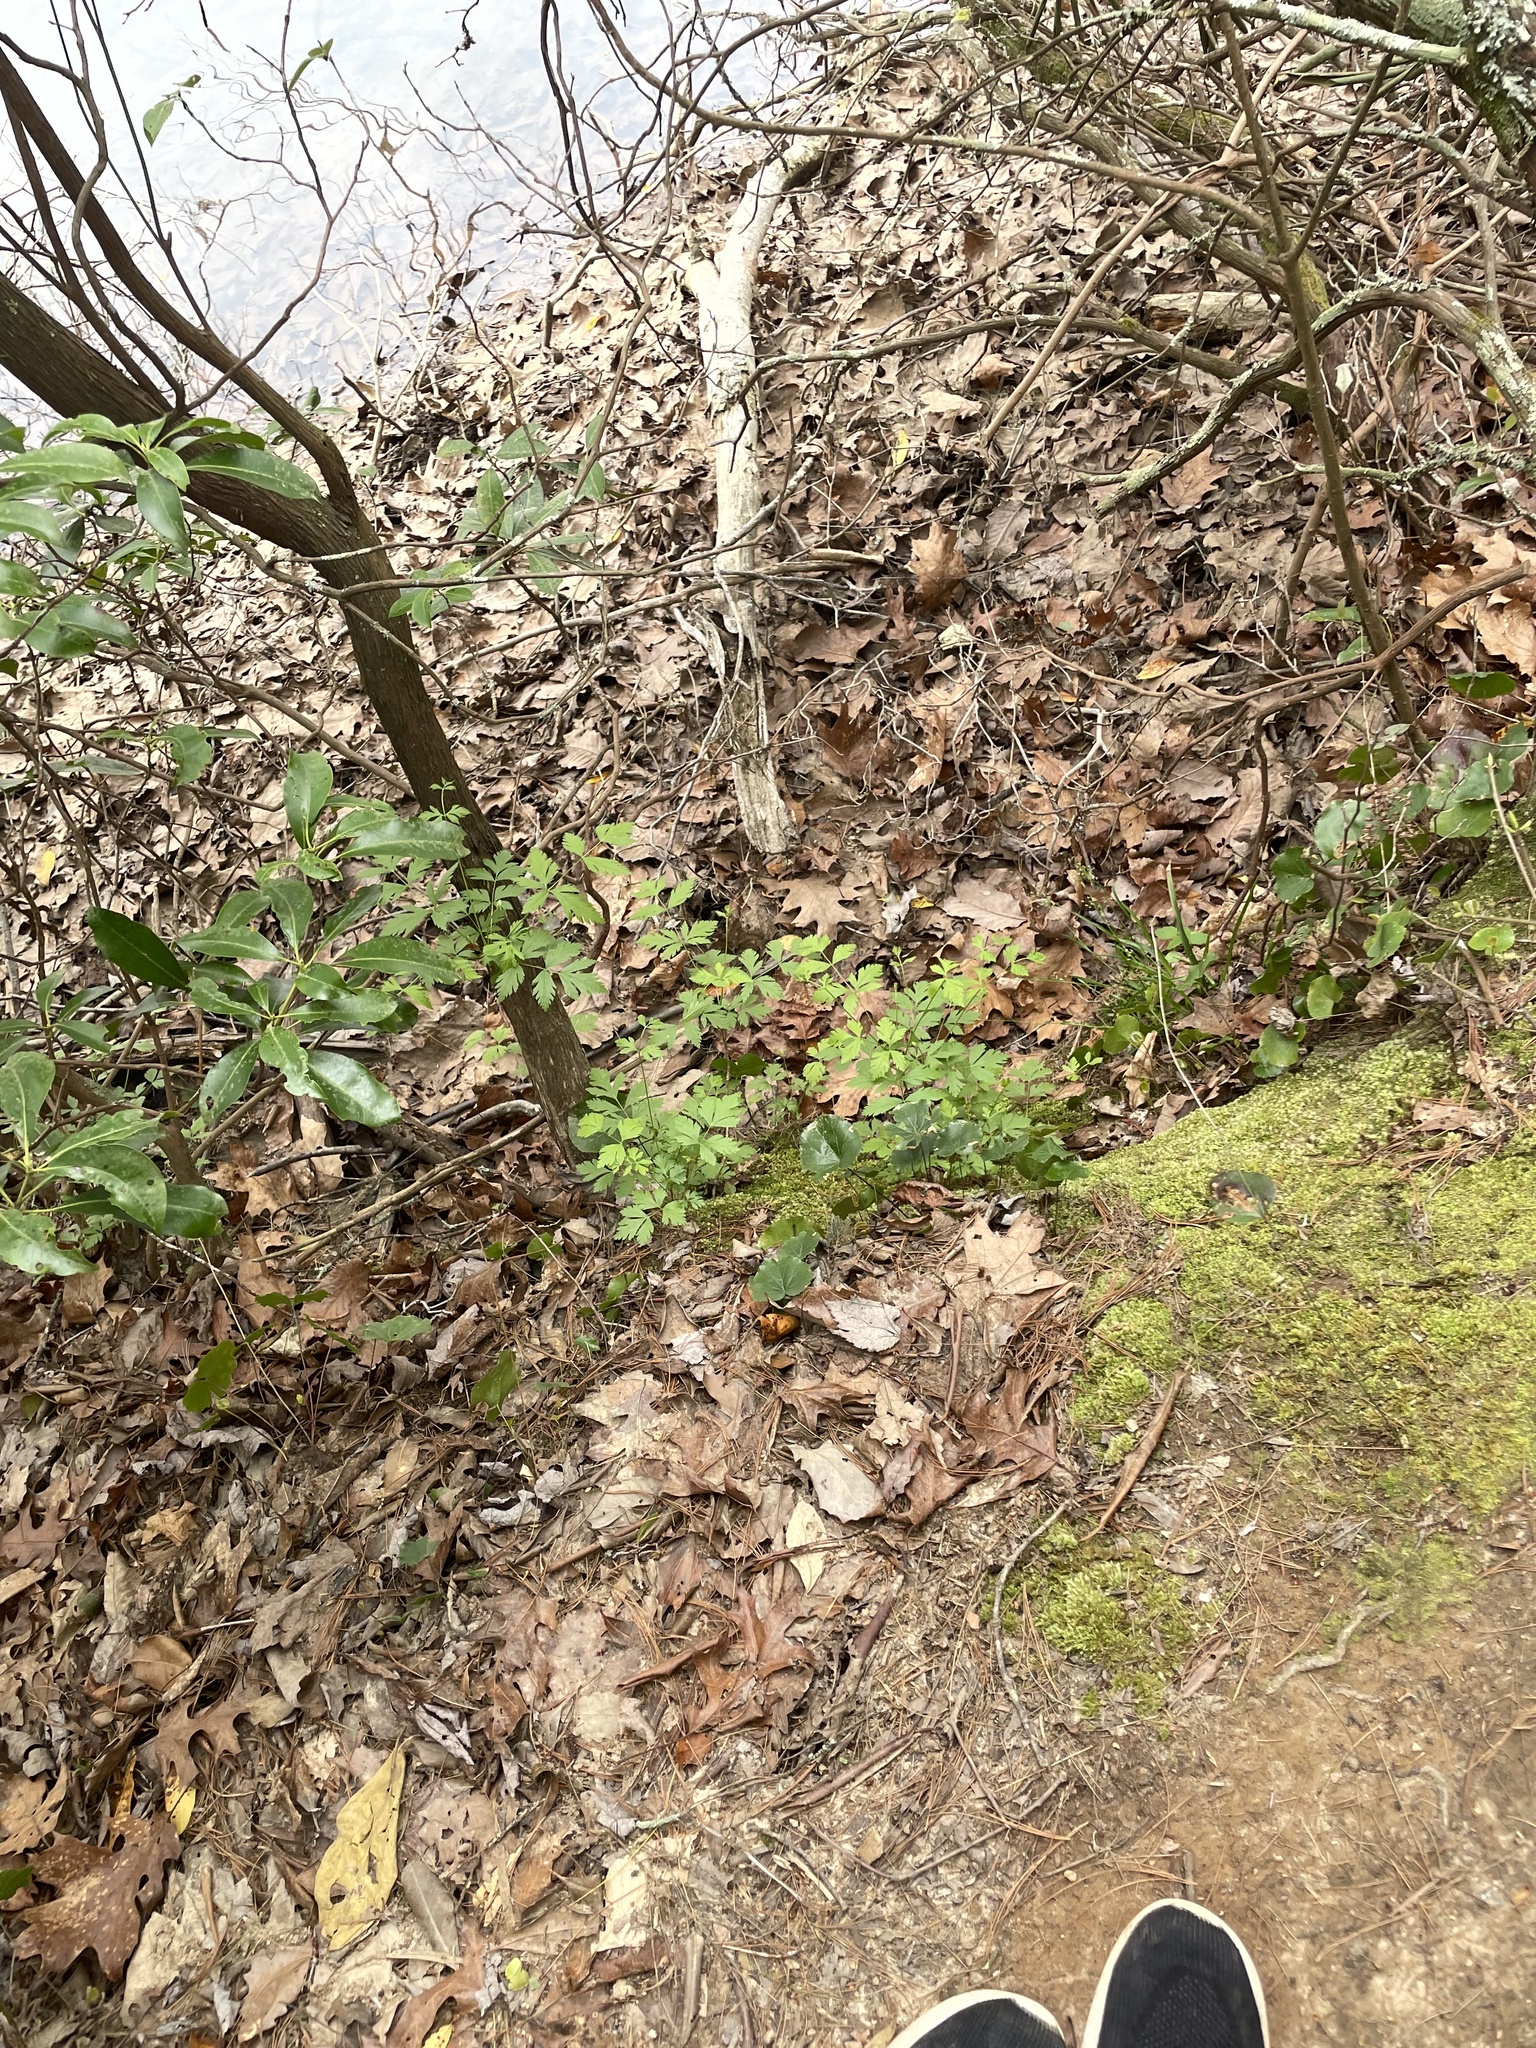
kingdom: Plantae
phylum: Tracheophyta
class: Magnoliopsida
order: Ranunculales
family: Ranunculaceae
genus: Xanthorhiza
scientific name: Xanthorhiza simplicissima
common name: Yellowroot
